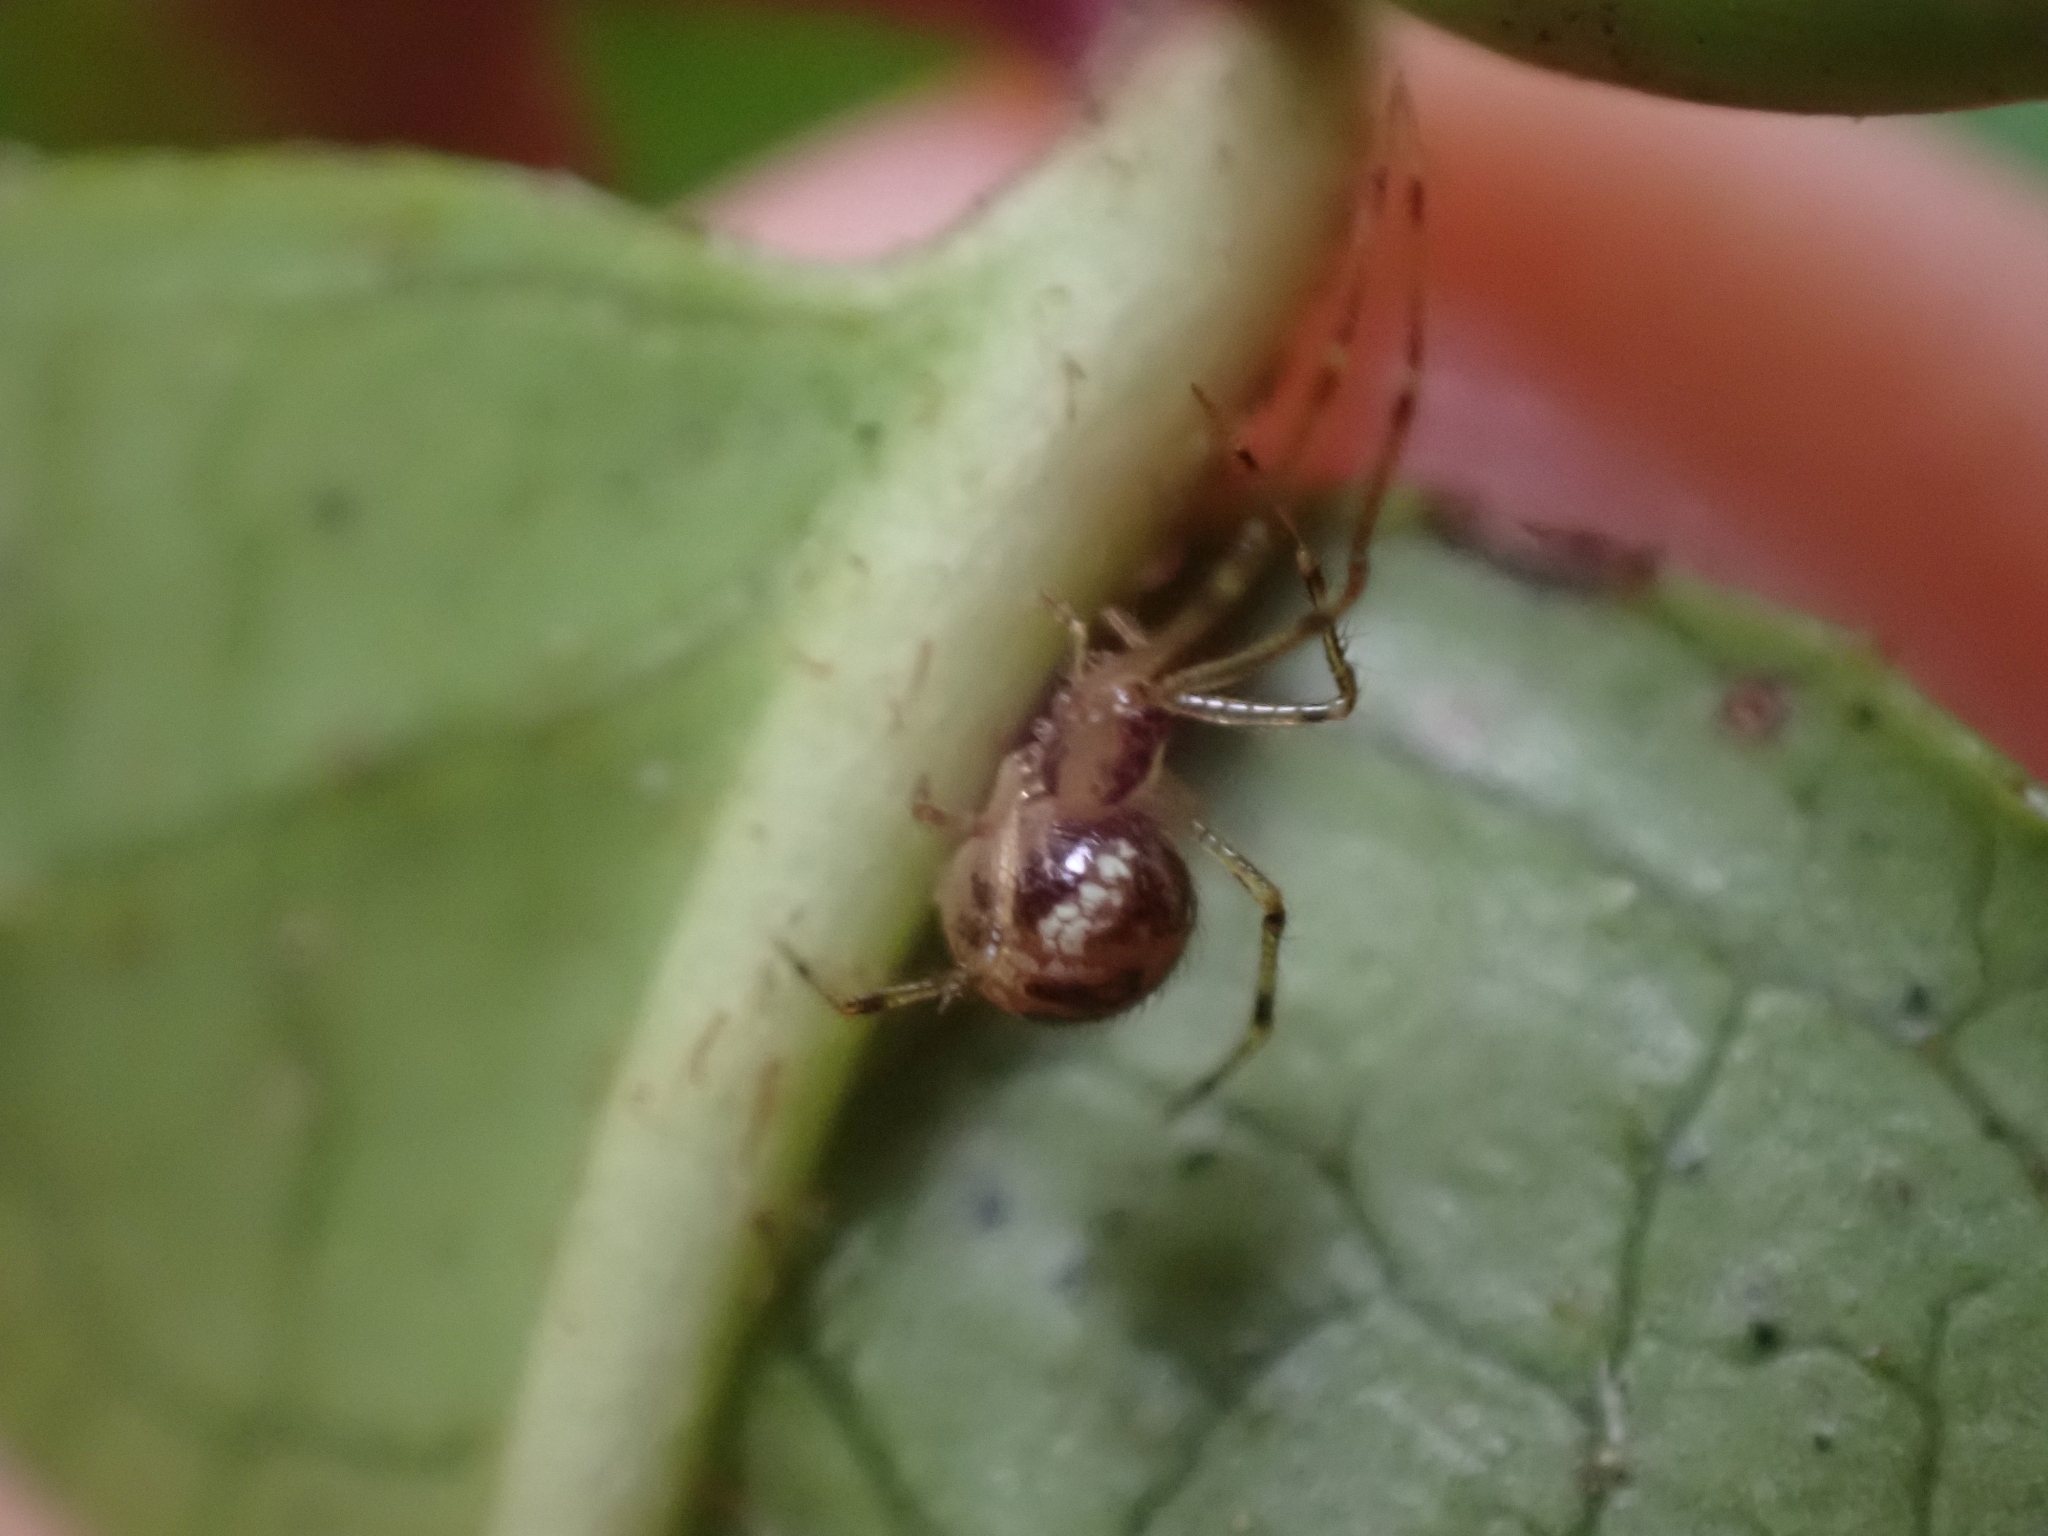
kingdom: Animalia
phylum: Arthropoda
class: Arachnida
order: Araneae
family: Theridiidae
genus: Rugathodes
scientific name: Rugathodes sexpunctatus
